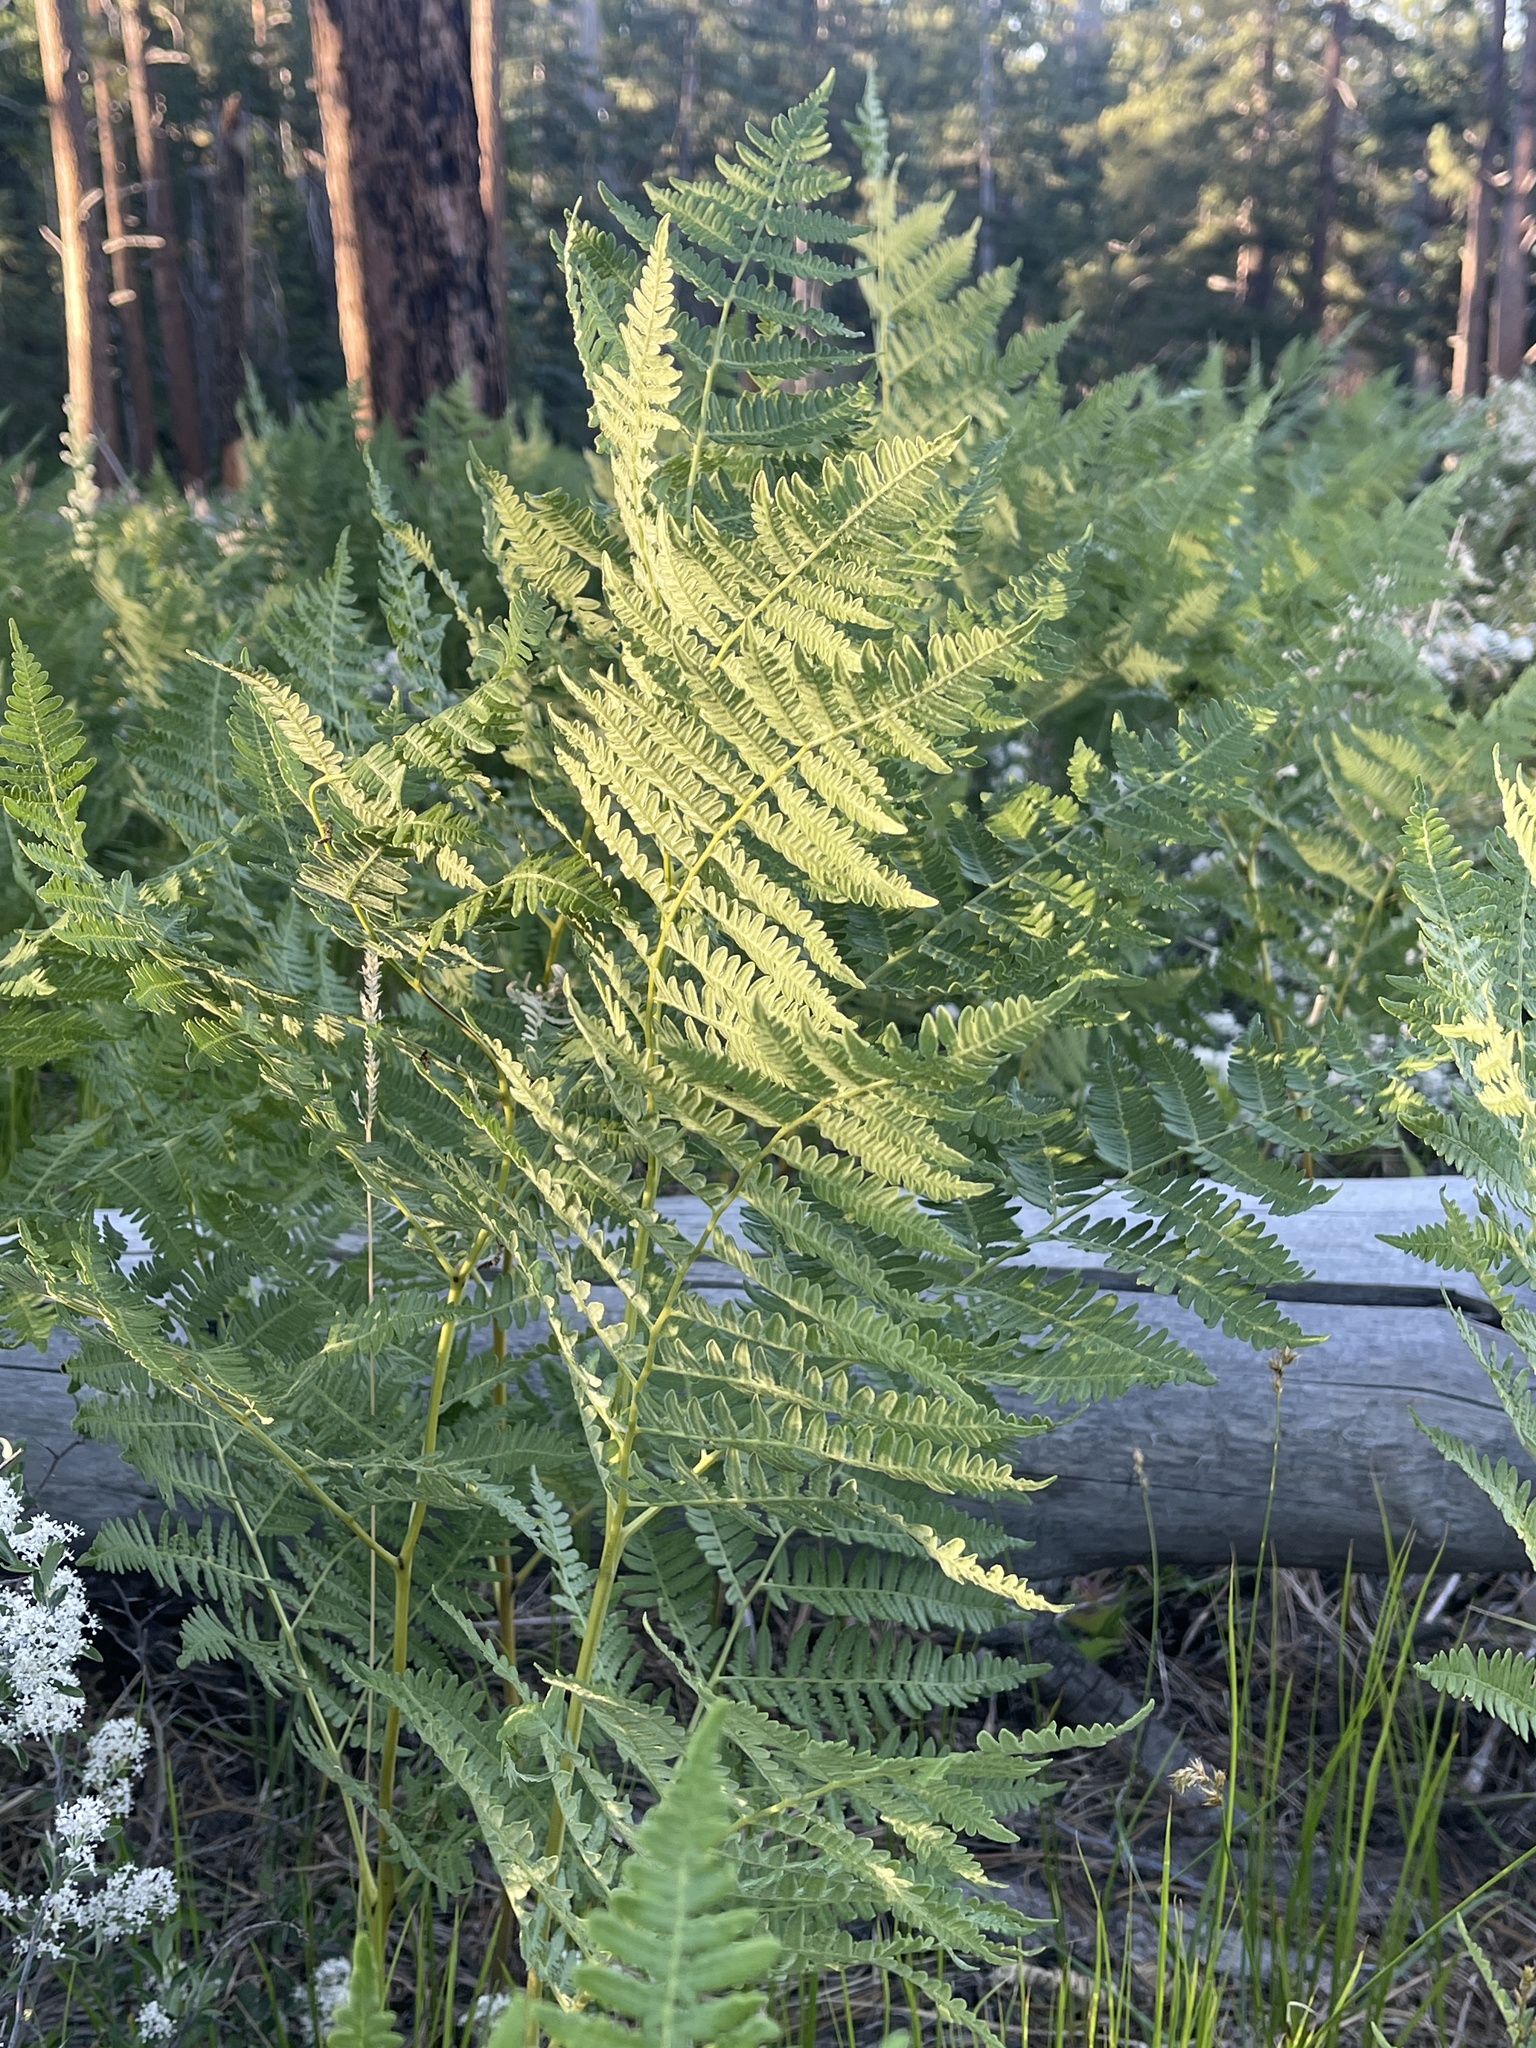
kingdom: Plantae
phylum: Tracheophyta
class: Polypodiopsida
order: Polypodiales
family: Dennstaedtiaceae
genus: Pteridium
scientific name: Pteridium aquilinum
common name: Bracken
